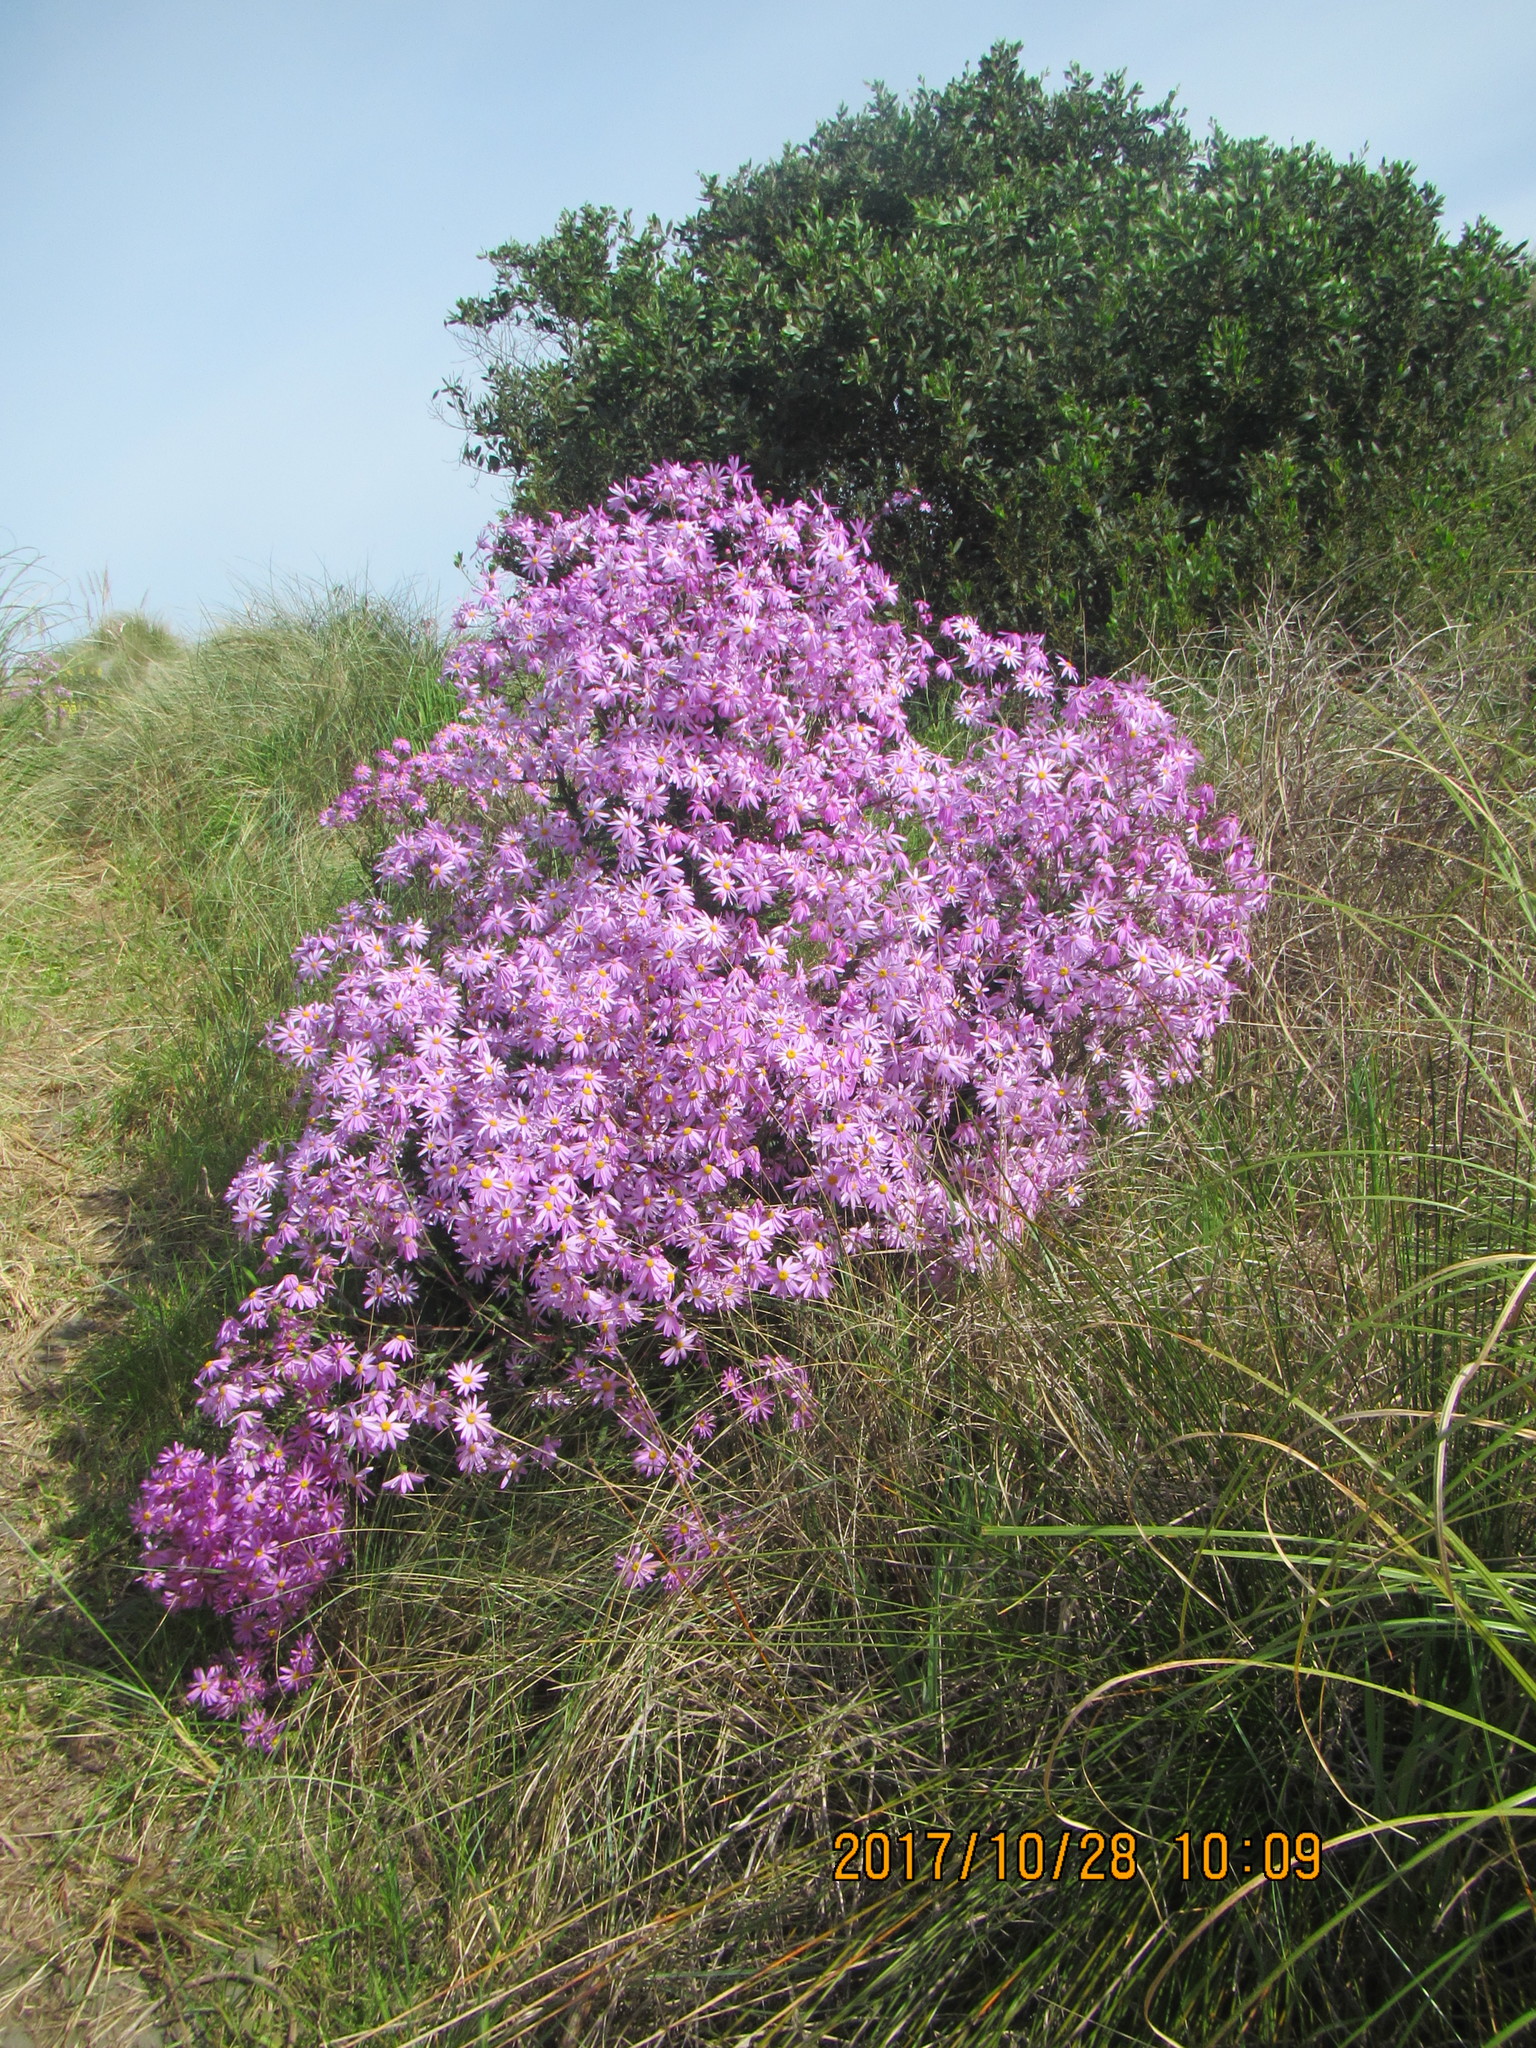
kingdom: Plantae
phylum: Tracheophyta
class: Magnoliopsida
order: Asterales
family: Asteraceae
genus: Senecio
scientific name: Senecio glastifolius
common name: Woad-leaved ragwort
